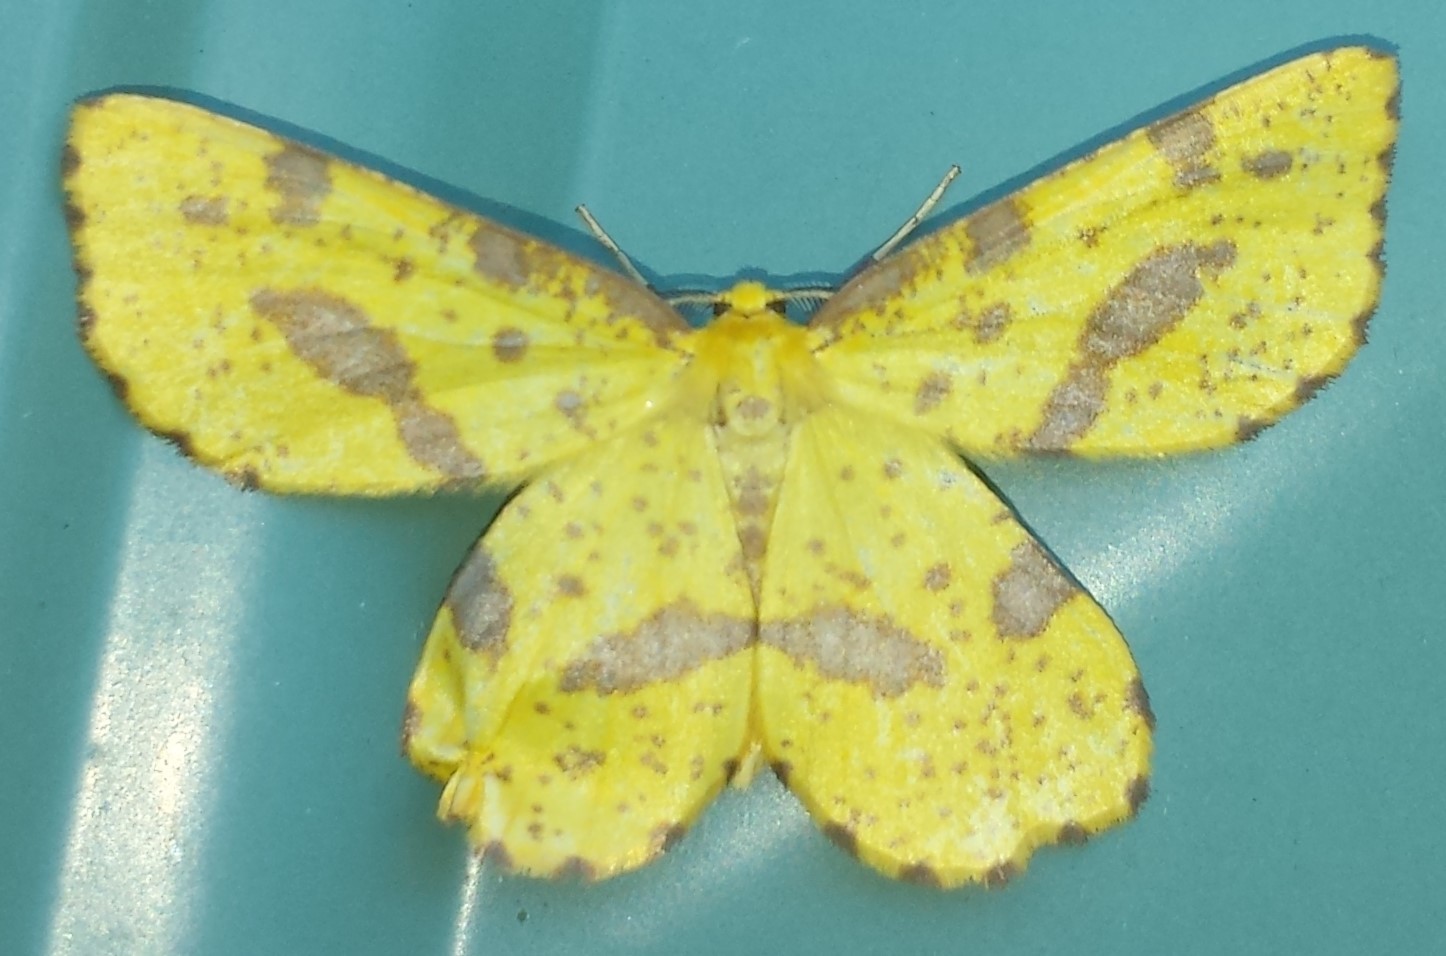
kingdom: Animalia
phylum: Arthropoda
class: Insecta
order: Lepidoptera
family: Geometridae
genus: Xanthotype
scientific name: Xanthotype
